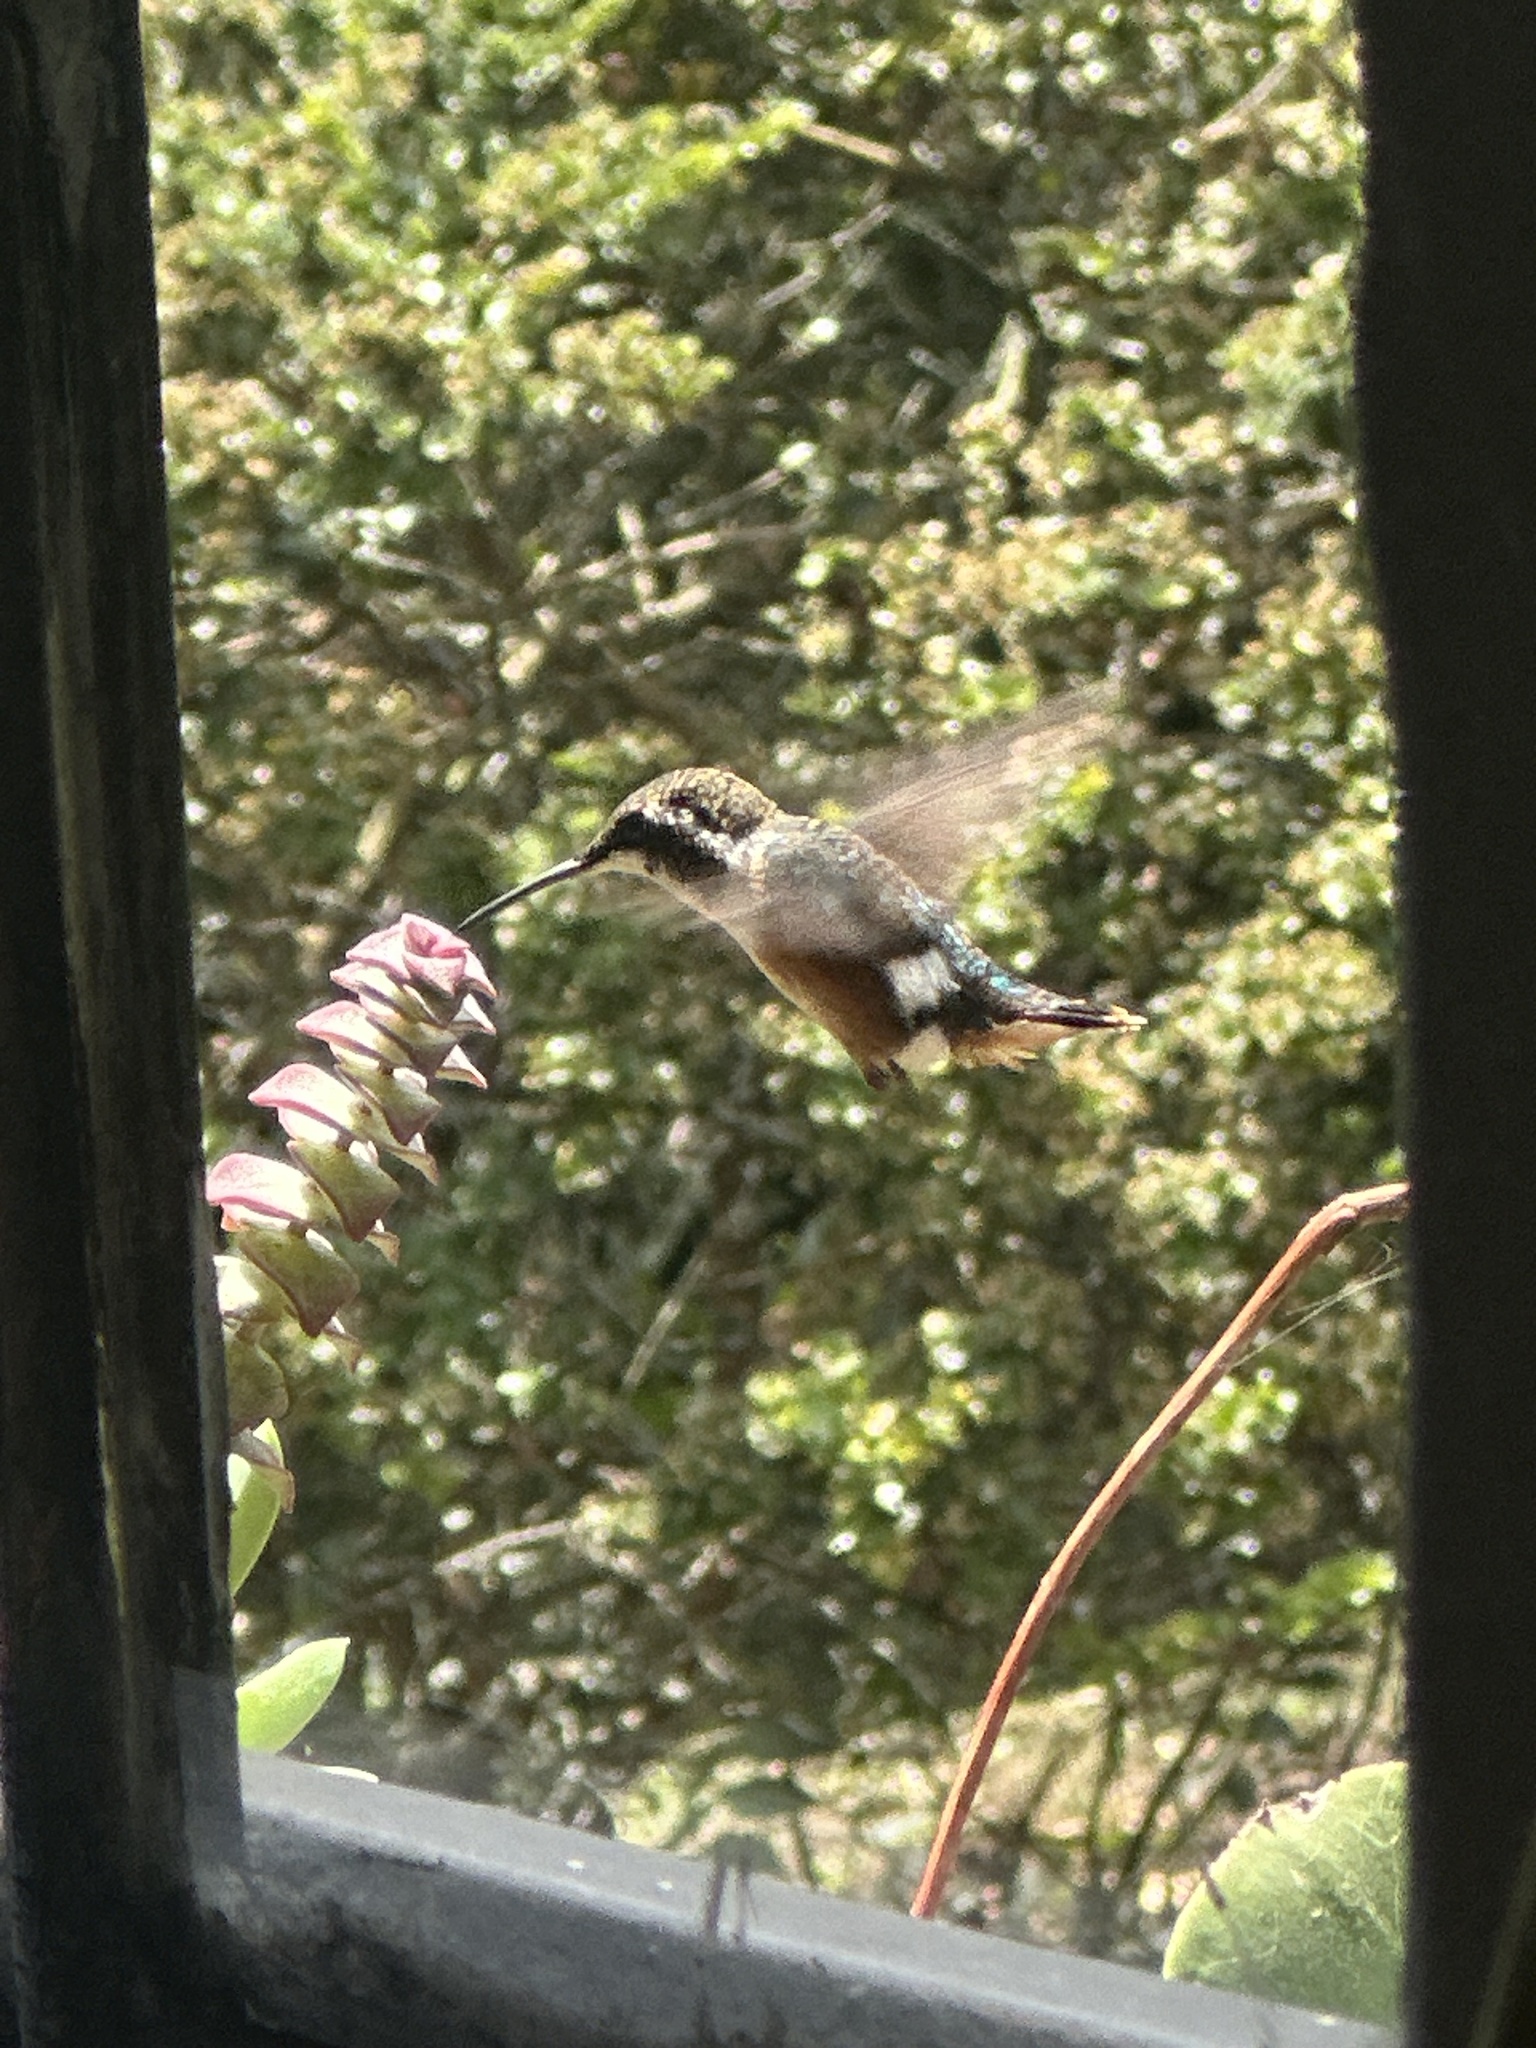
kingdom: Animalia
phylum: Chordata
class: Aves
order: Apodiformes
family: Trochilidae
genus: Chaetocercus
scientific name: Chaetocercus mulsant
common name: White-bellied woodstar
